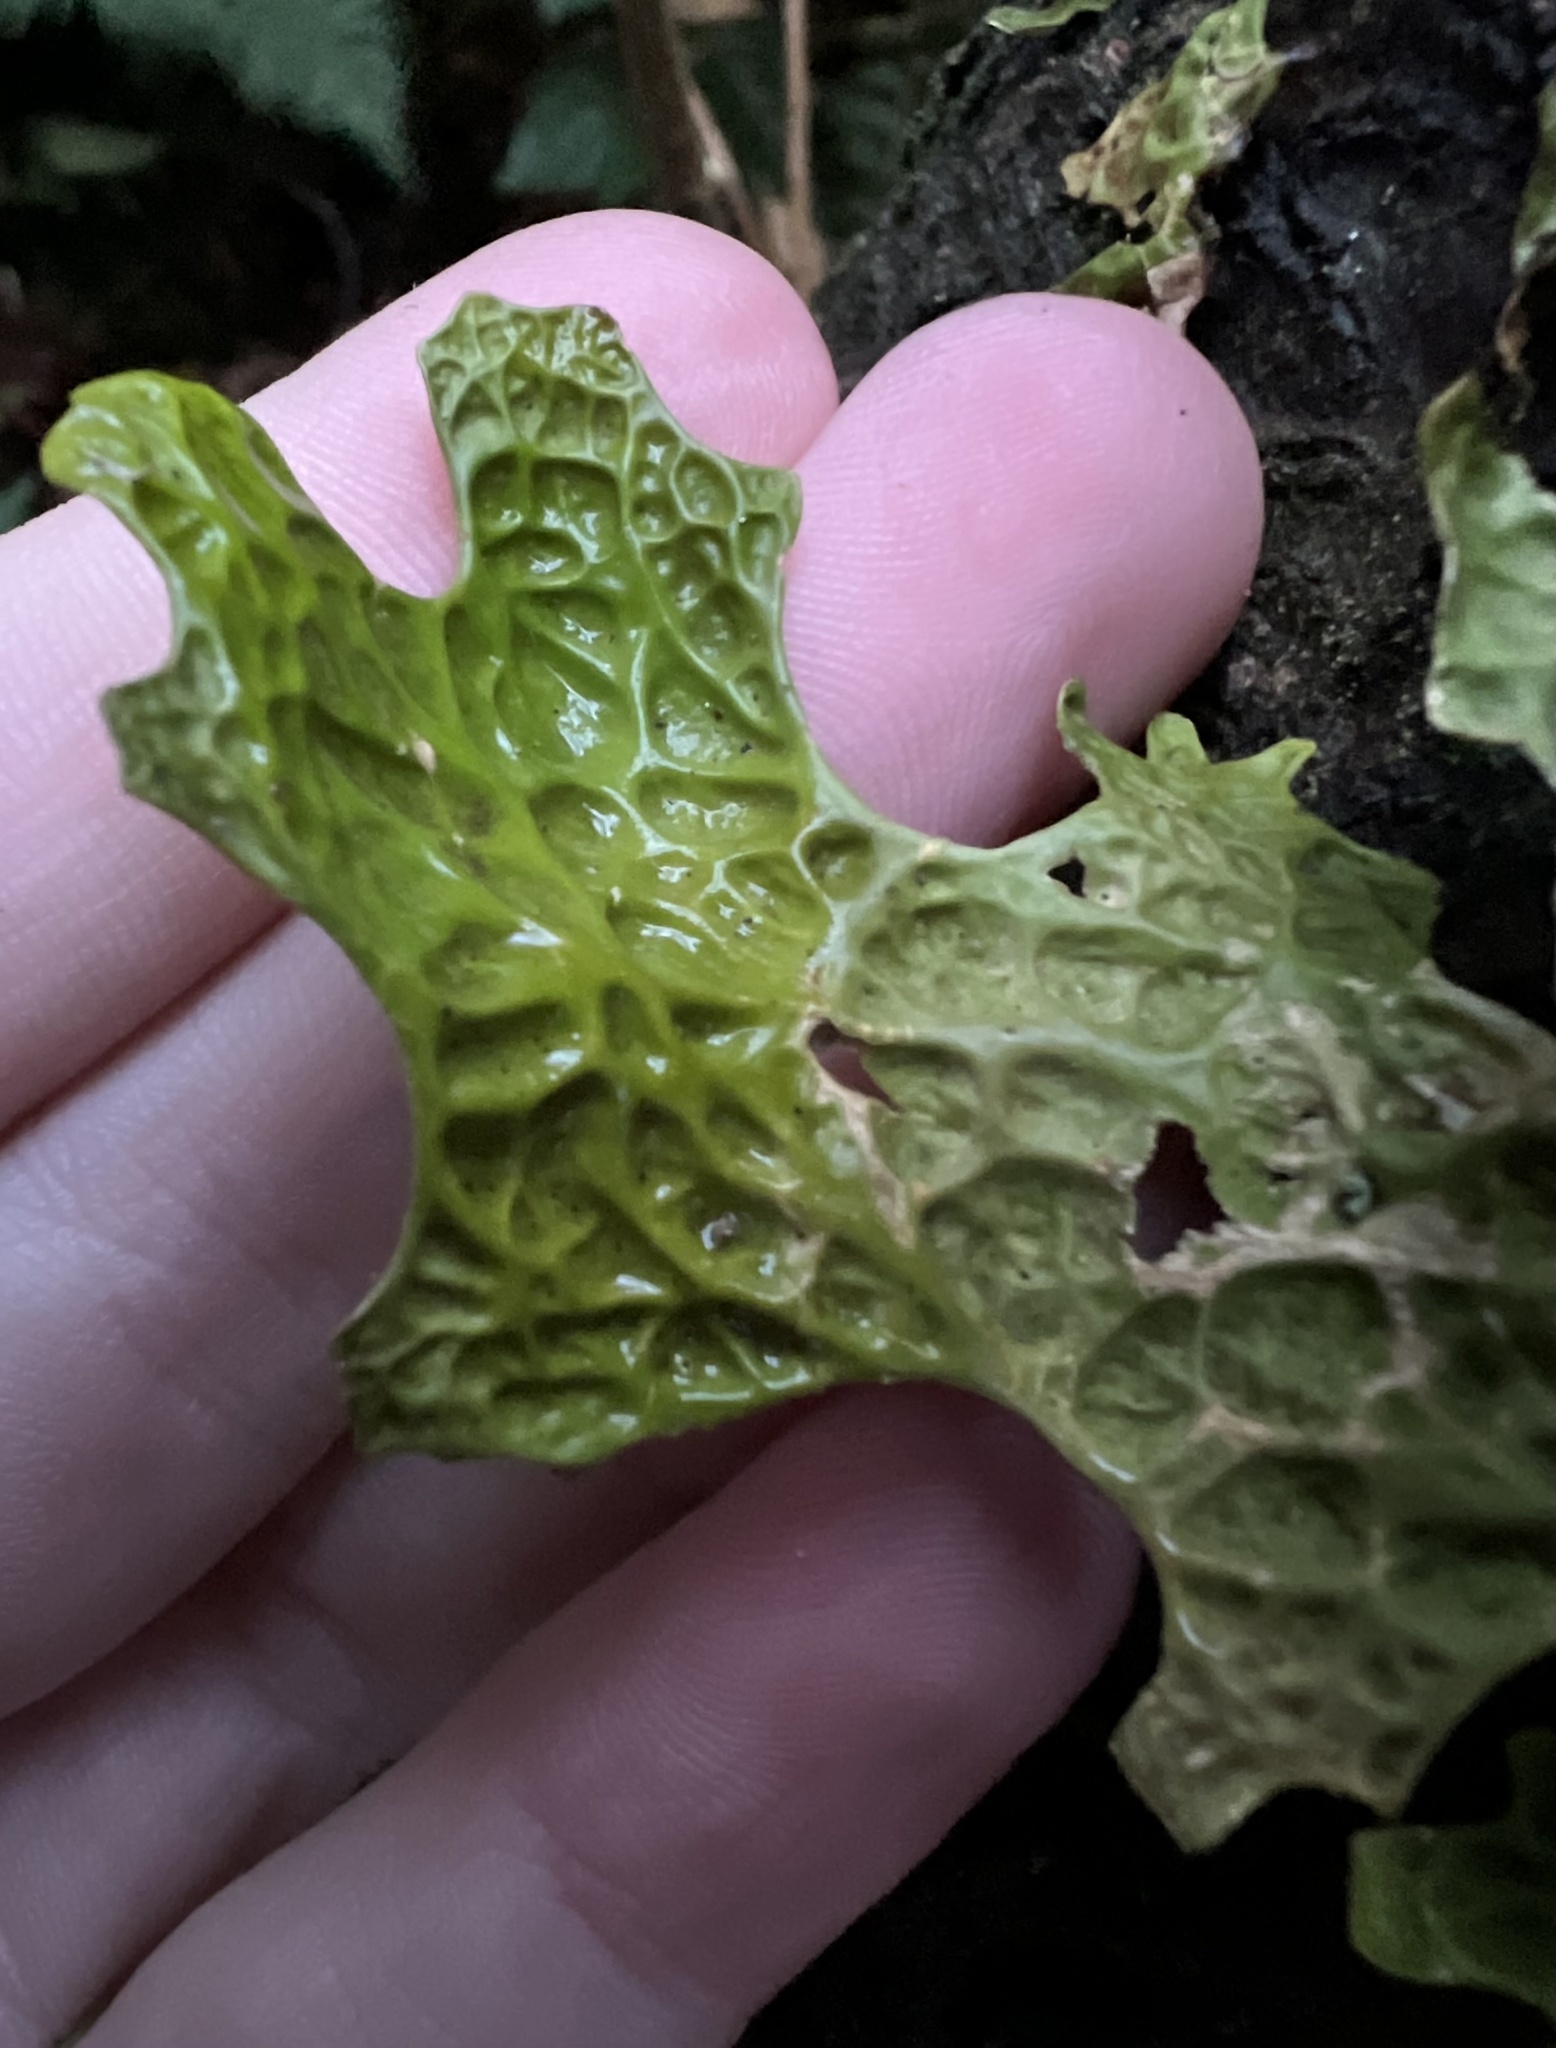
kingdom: Fungi
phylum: Ascomycota
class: Lecanoromycetes
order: Peltigerales
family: Lobariaceae
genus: Lobaria
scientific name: Lobaria pulmonaria
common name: Lungwort
